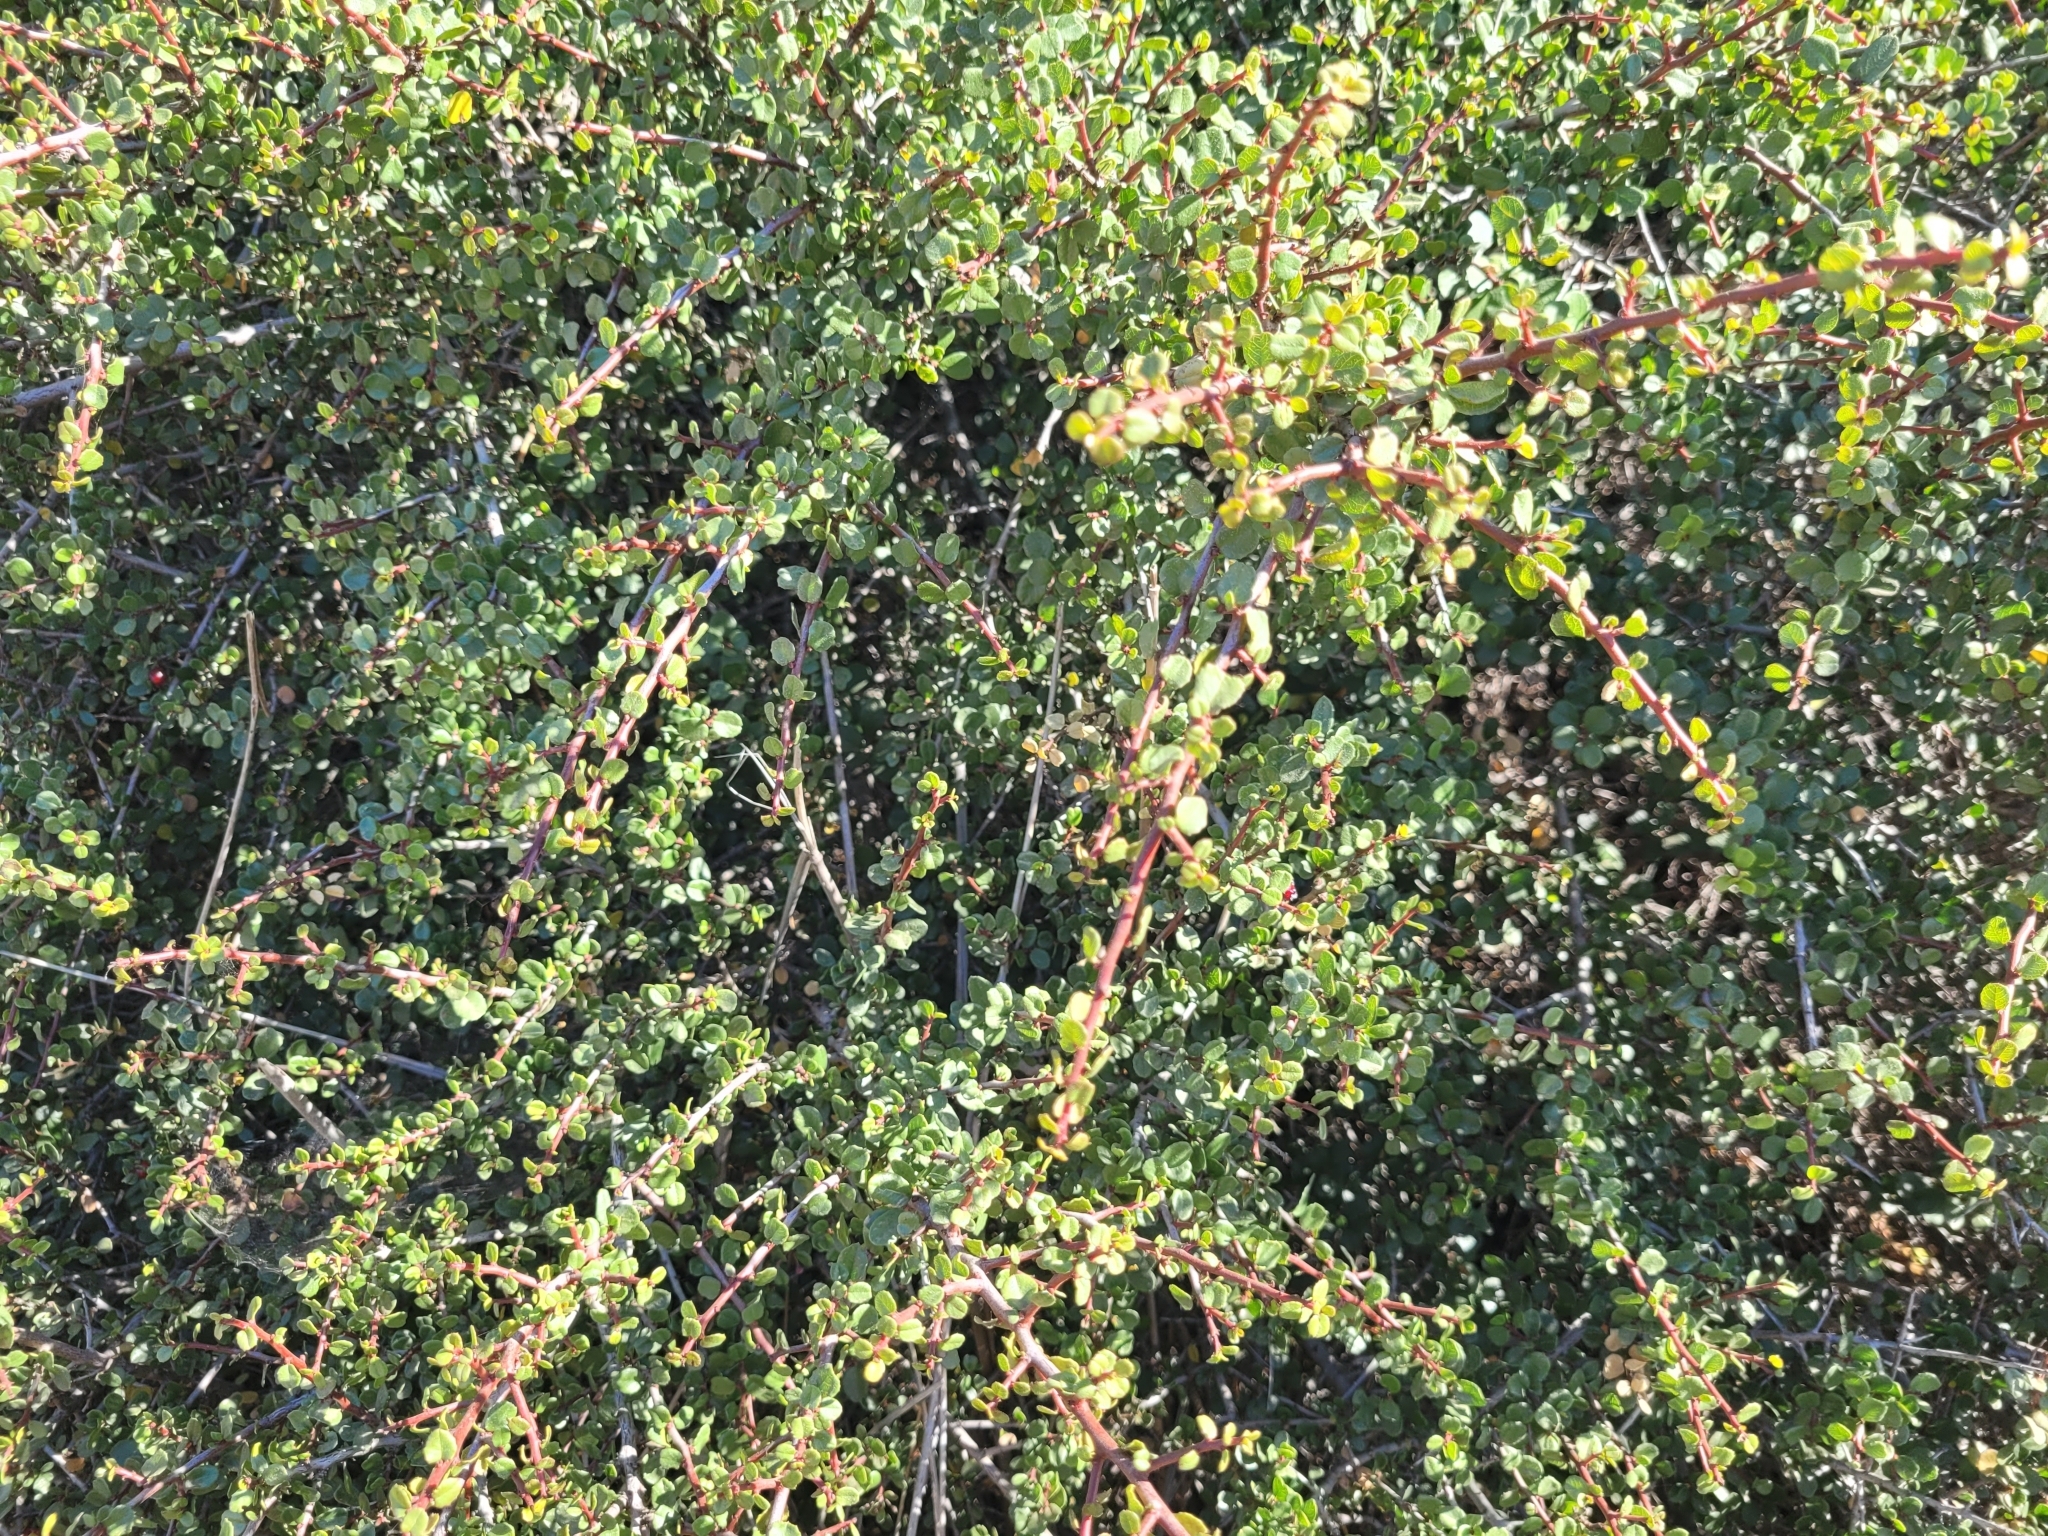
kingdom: Plantae
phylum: Tracheophyta
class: Magnoliopsida
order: Rosales
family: Rhamnaceae
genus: Endotropis
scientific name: Endotropis crocea
